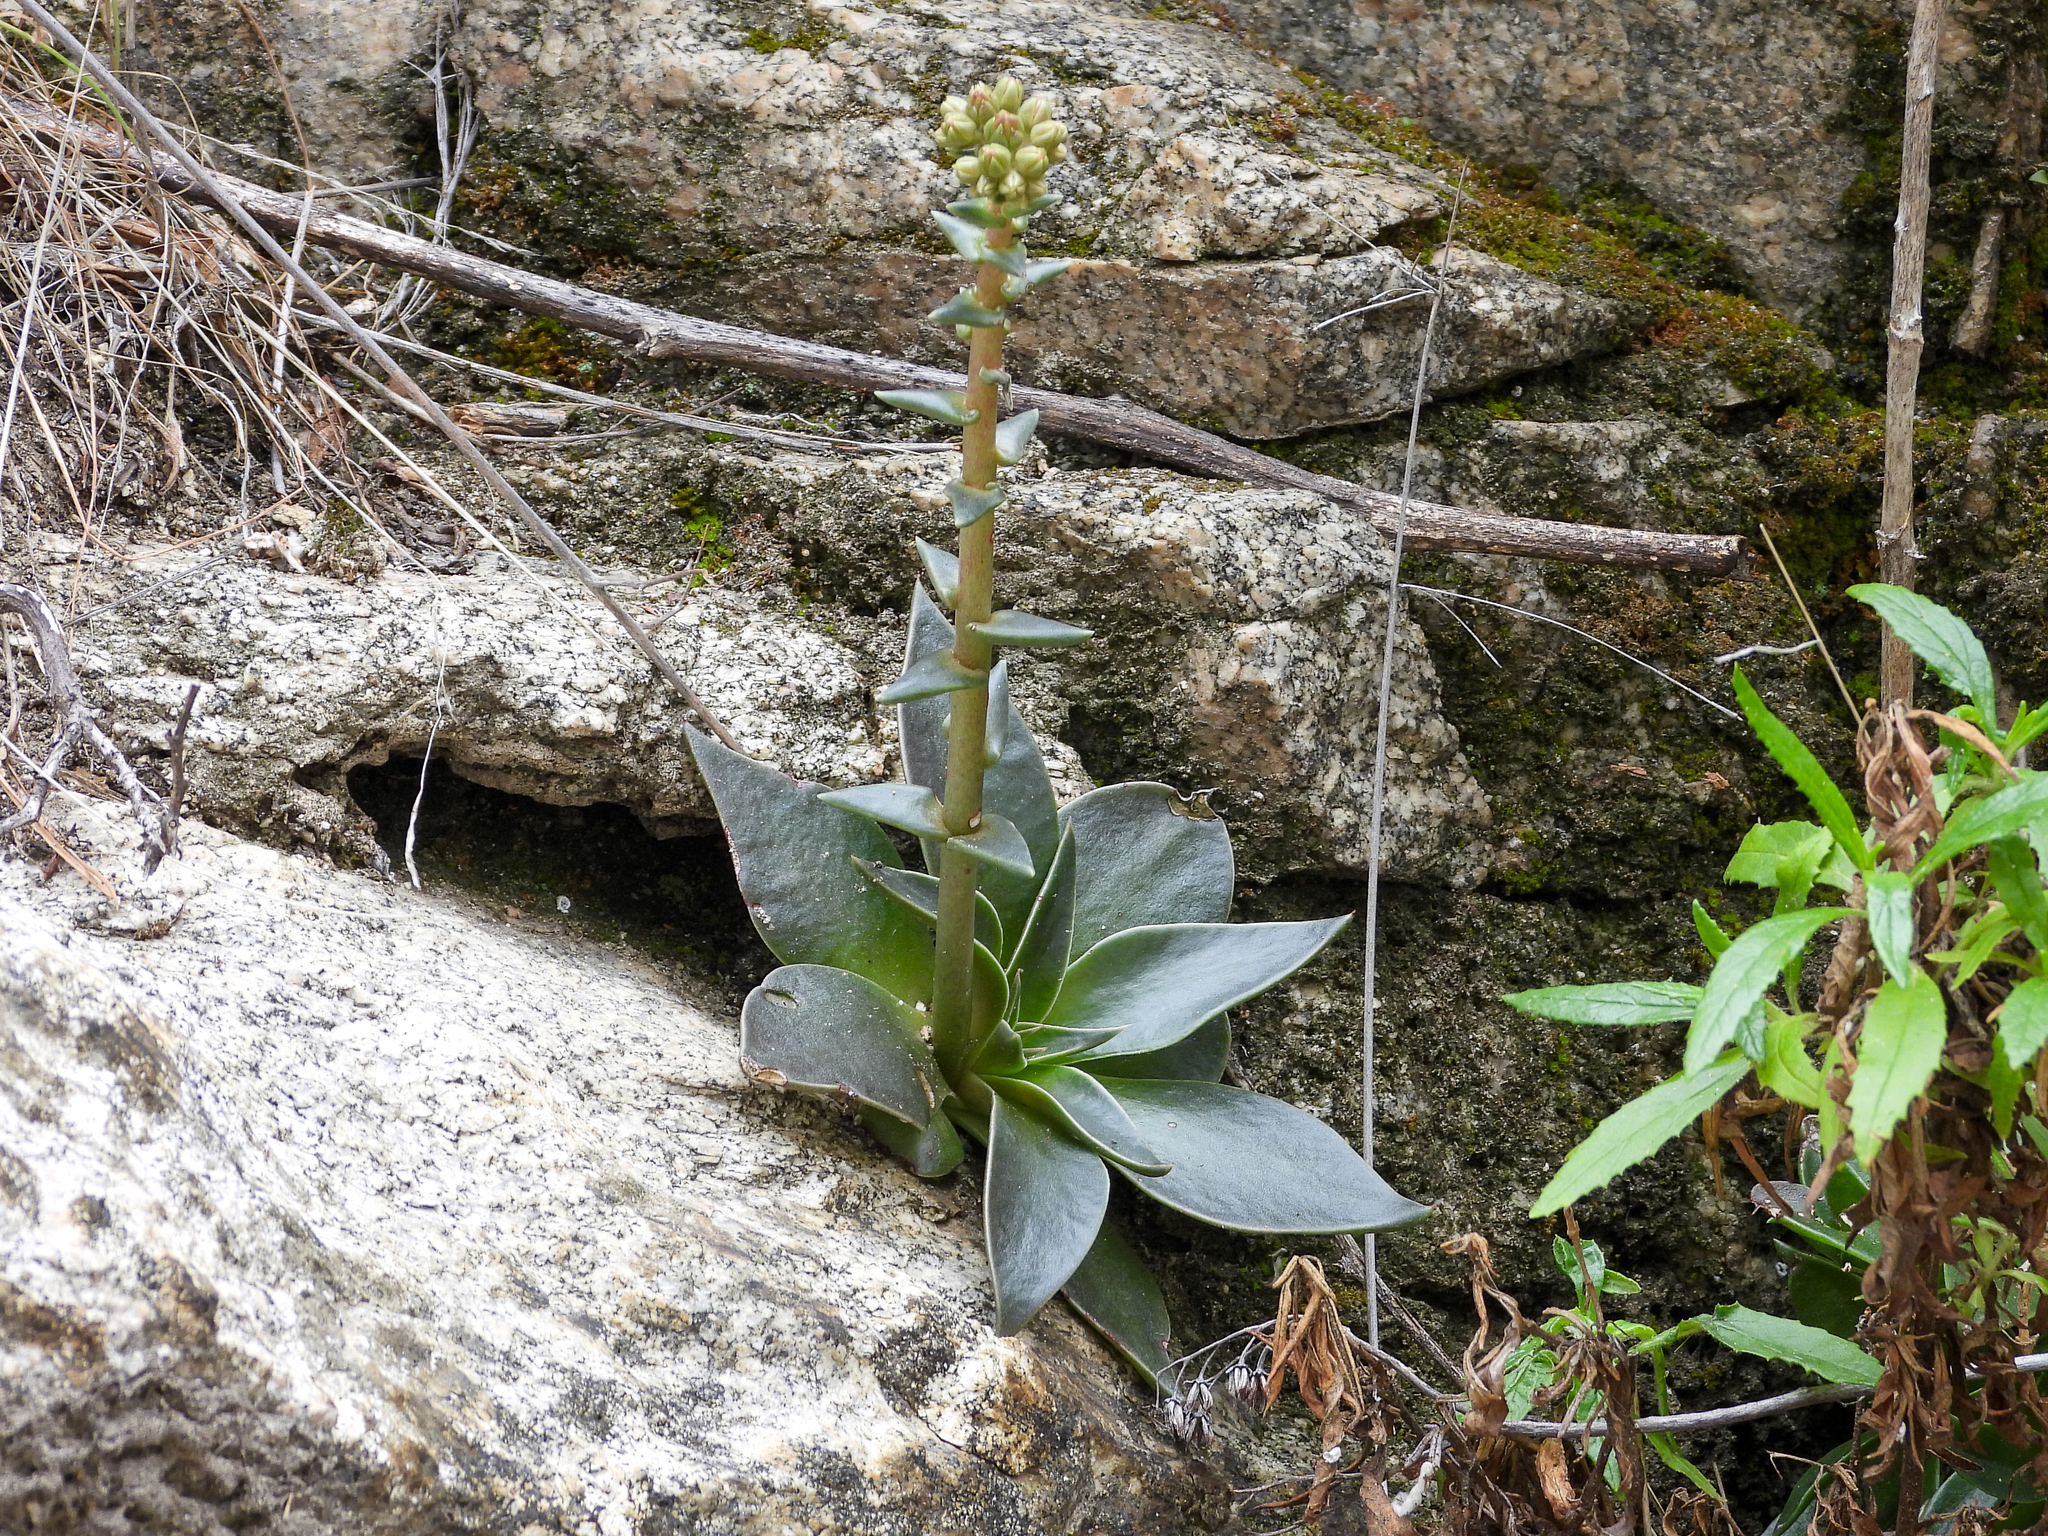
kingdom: Plantae
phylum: Tracheophyta
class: Magnoliopsida
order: Saxifragales
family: Crassulaceae
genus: Dudleya
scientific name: Dudleya lanceolata
